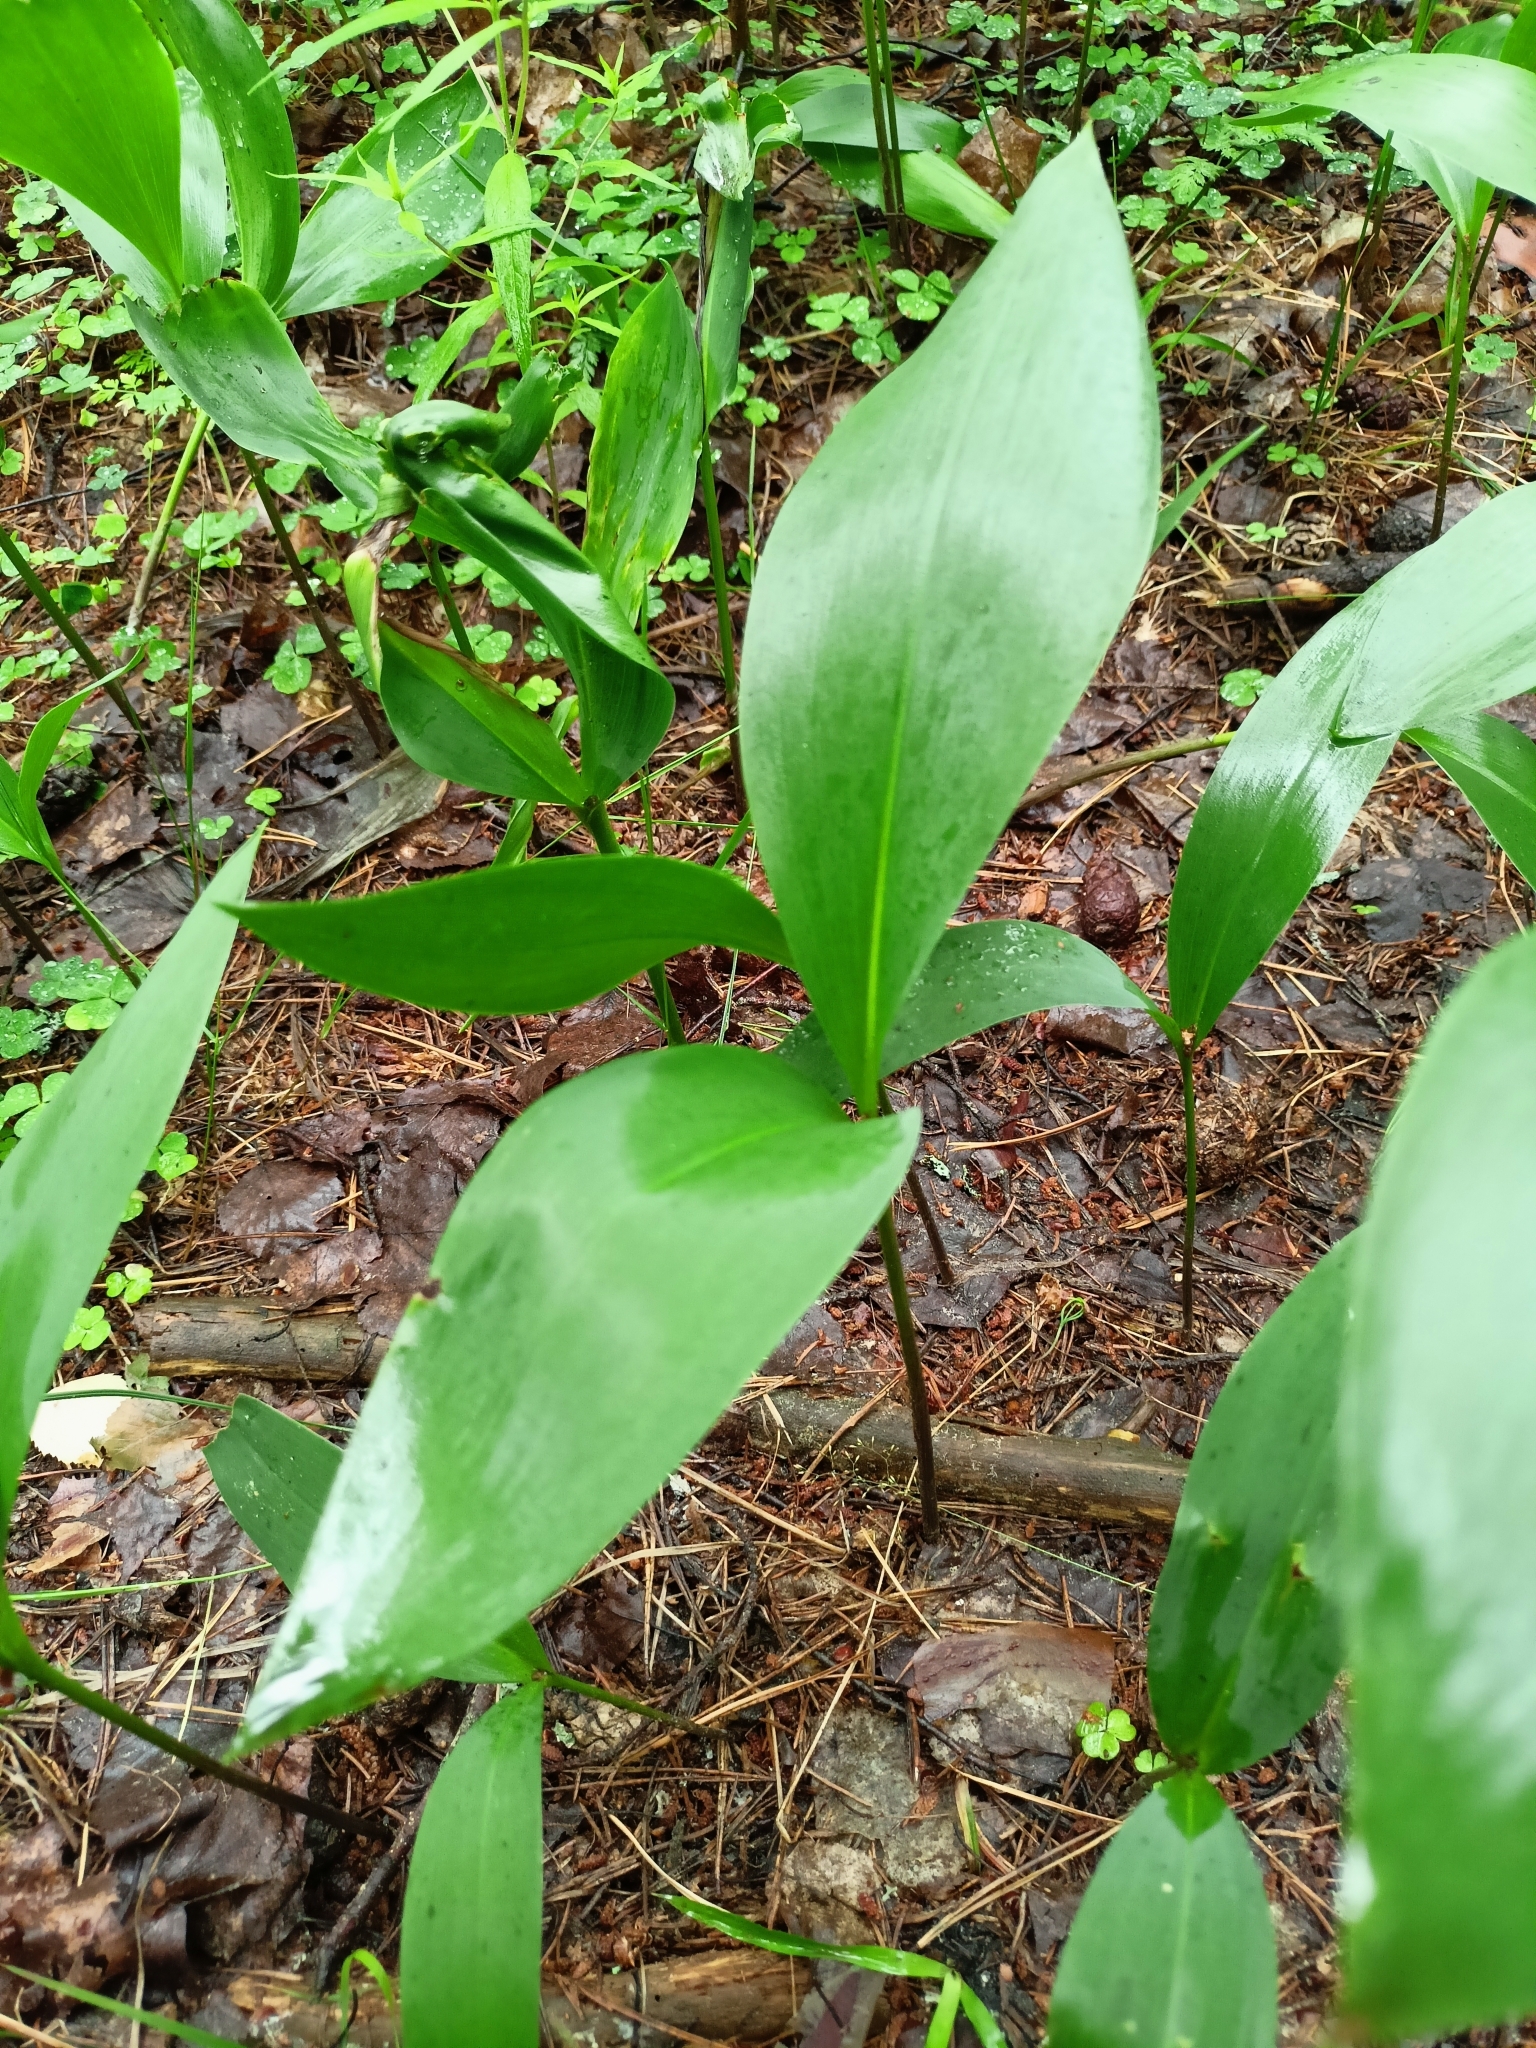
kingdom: Plantae
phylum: Tracheophyta
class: Liliopsida
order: Asparagales
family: Asparagaceae
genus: Convallaria
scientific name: Convallaria majalis
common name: Lily-of-the-valley
